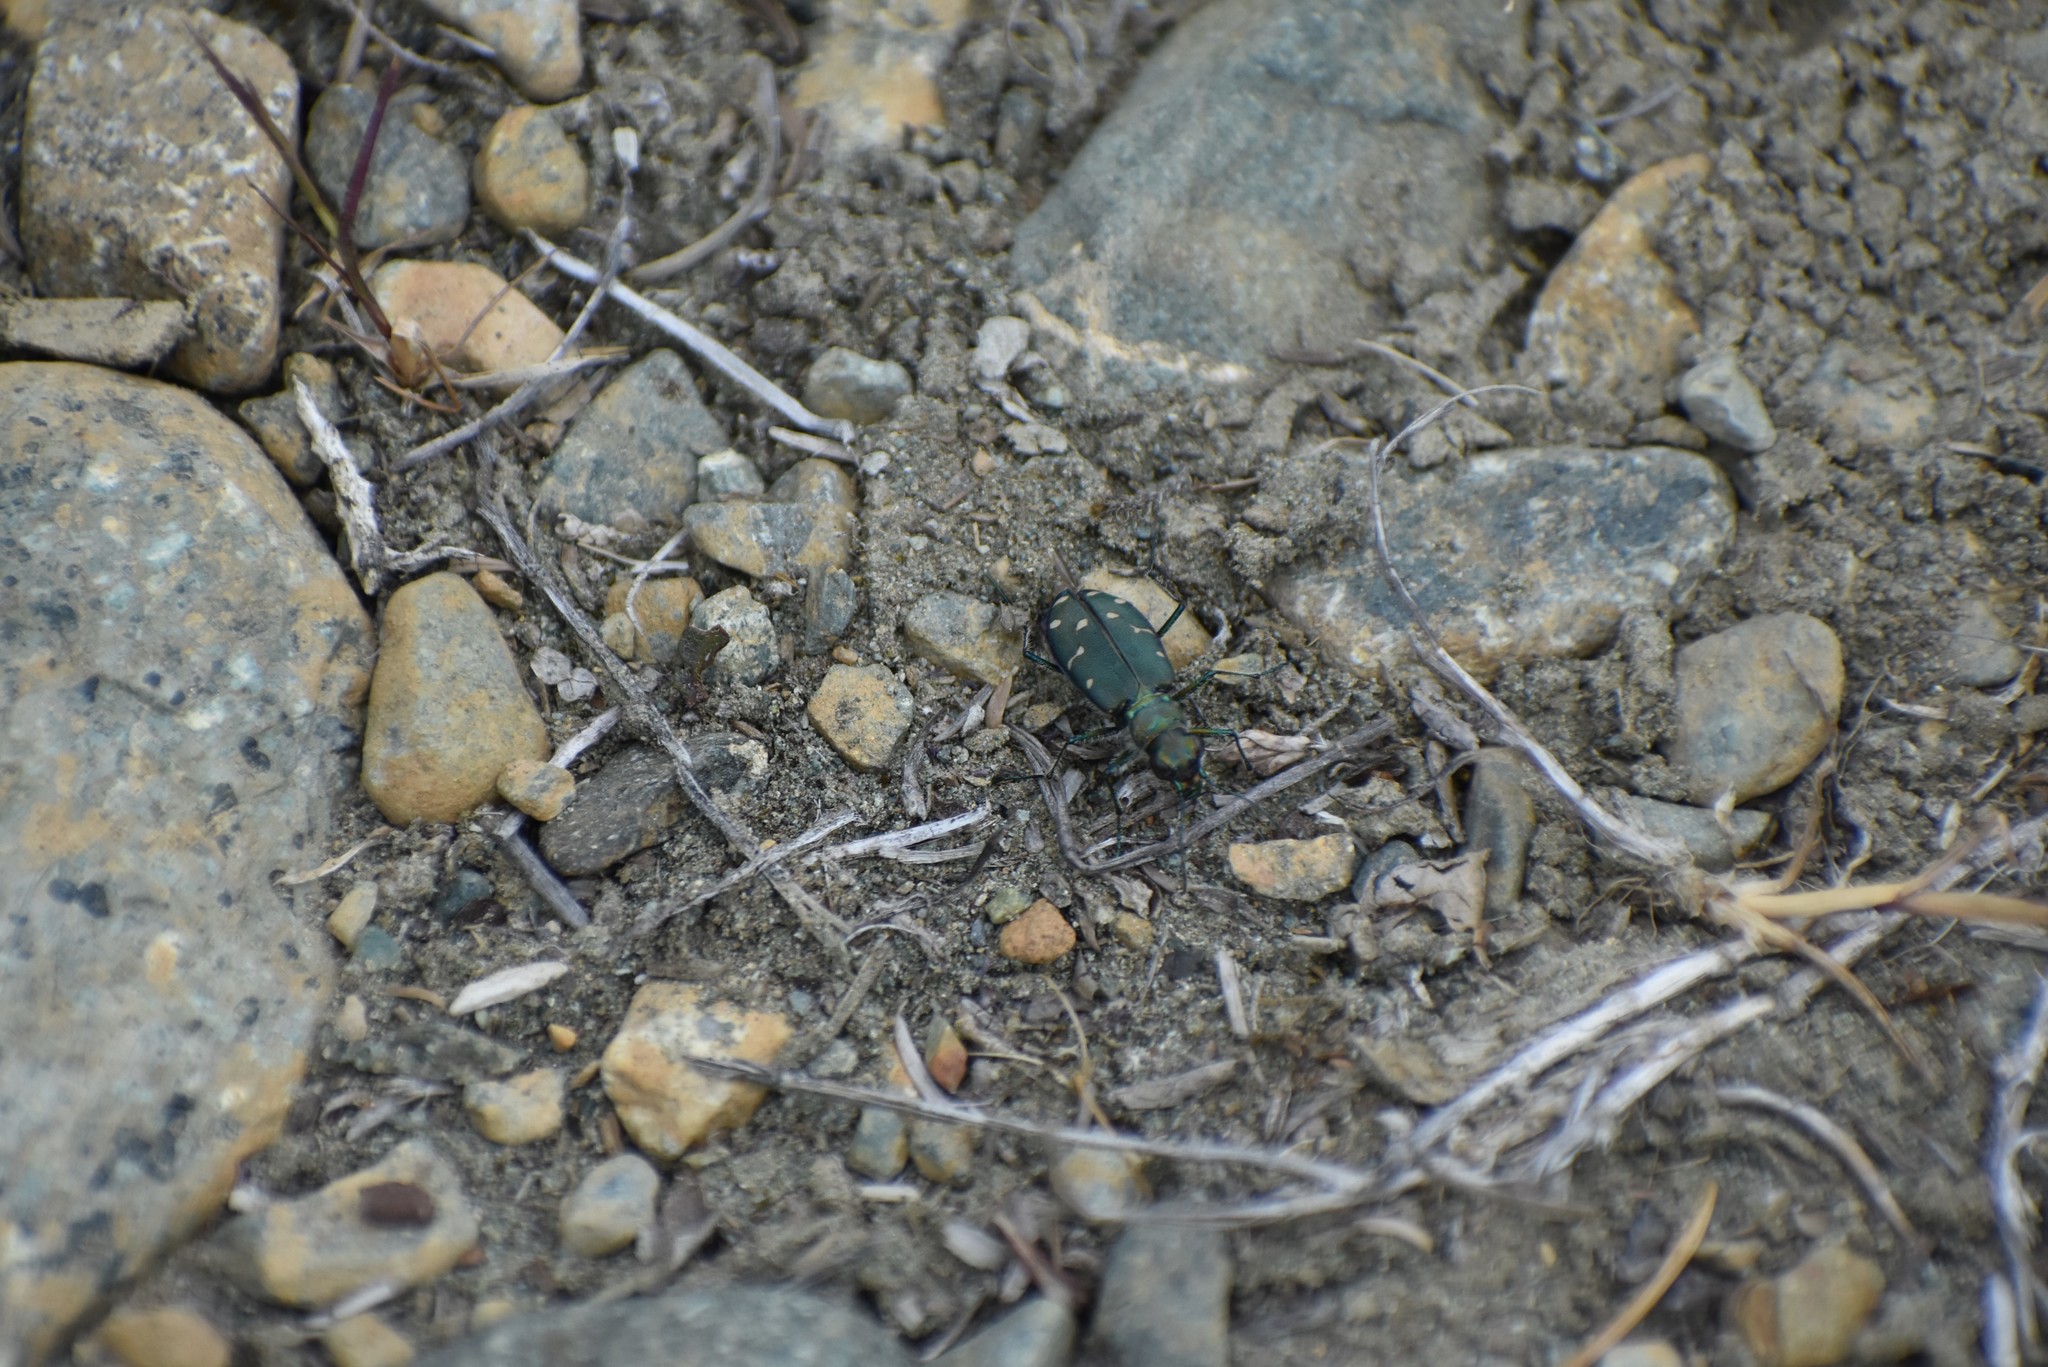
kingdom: Animalia
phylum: Arthropoda
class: Insecta
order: Coleoptera
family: Carabidae
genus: Cicindela
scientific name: Cicindela oregona
